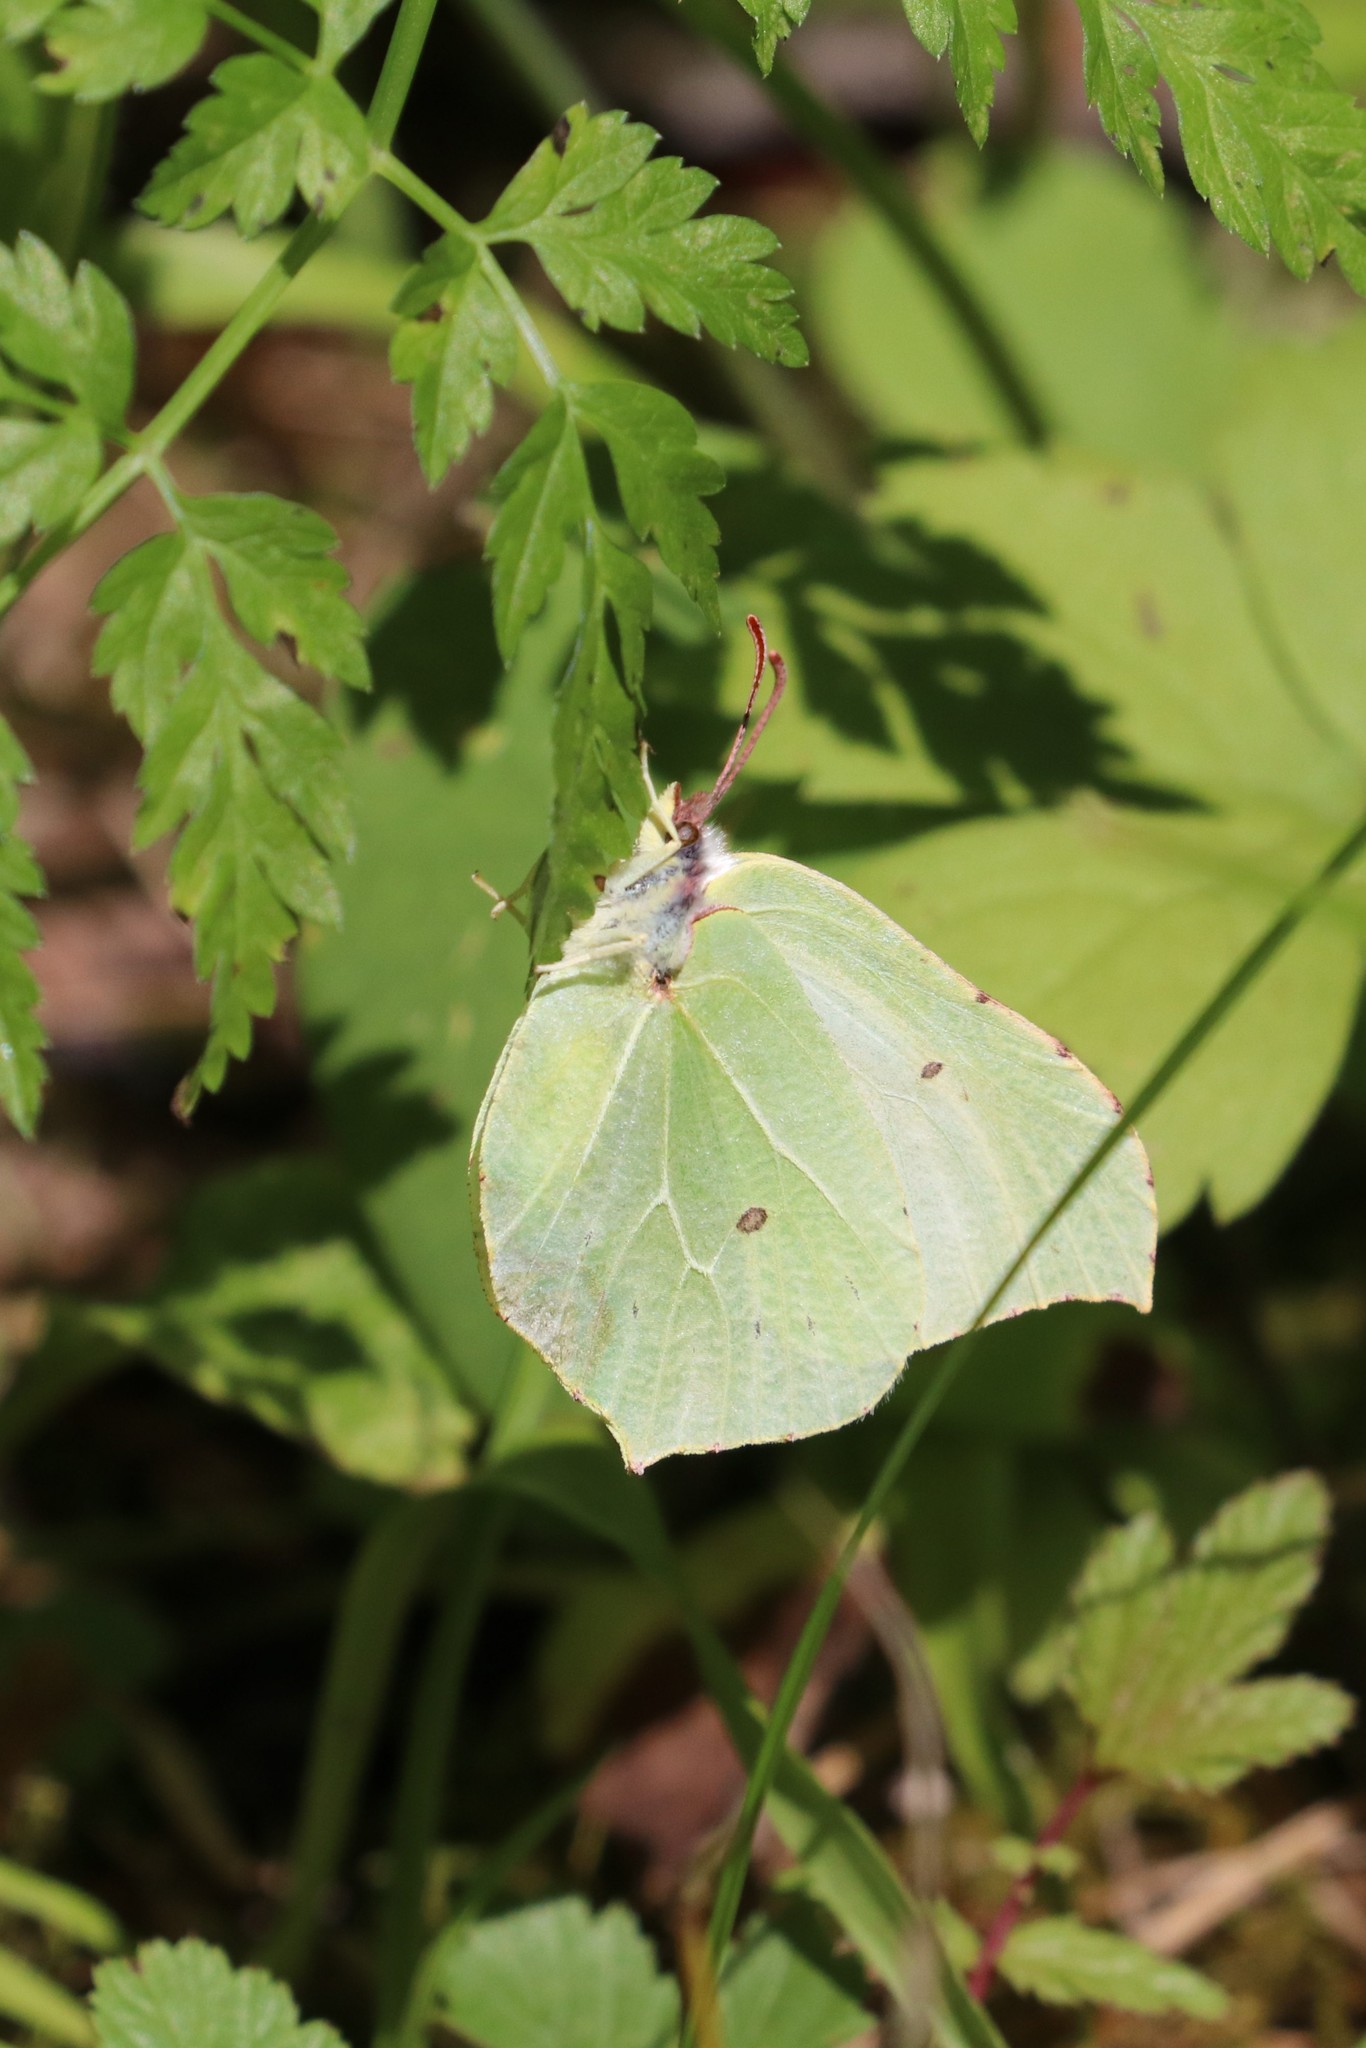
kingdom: Animalia
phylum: Arthropoda
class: Insecta
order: Lepidoptera
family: Pieridae
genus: Gonepteryx
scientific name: Gonepteryx rhamni
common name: Brimstone
